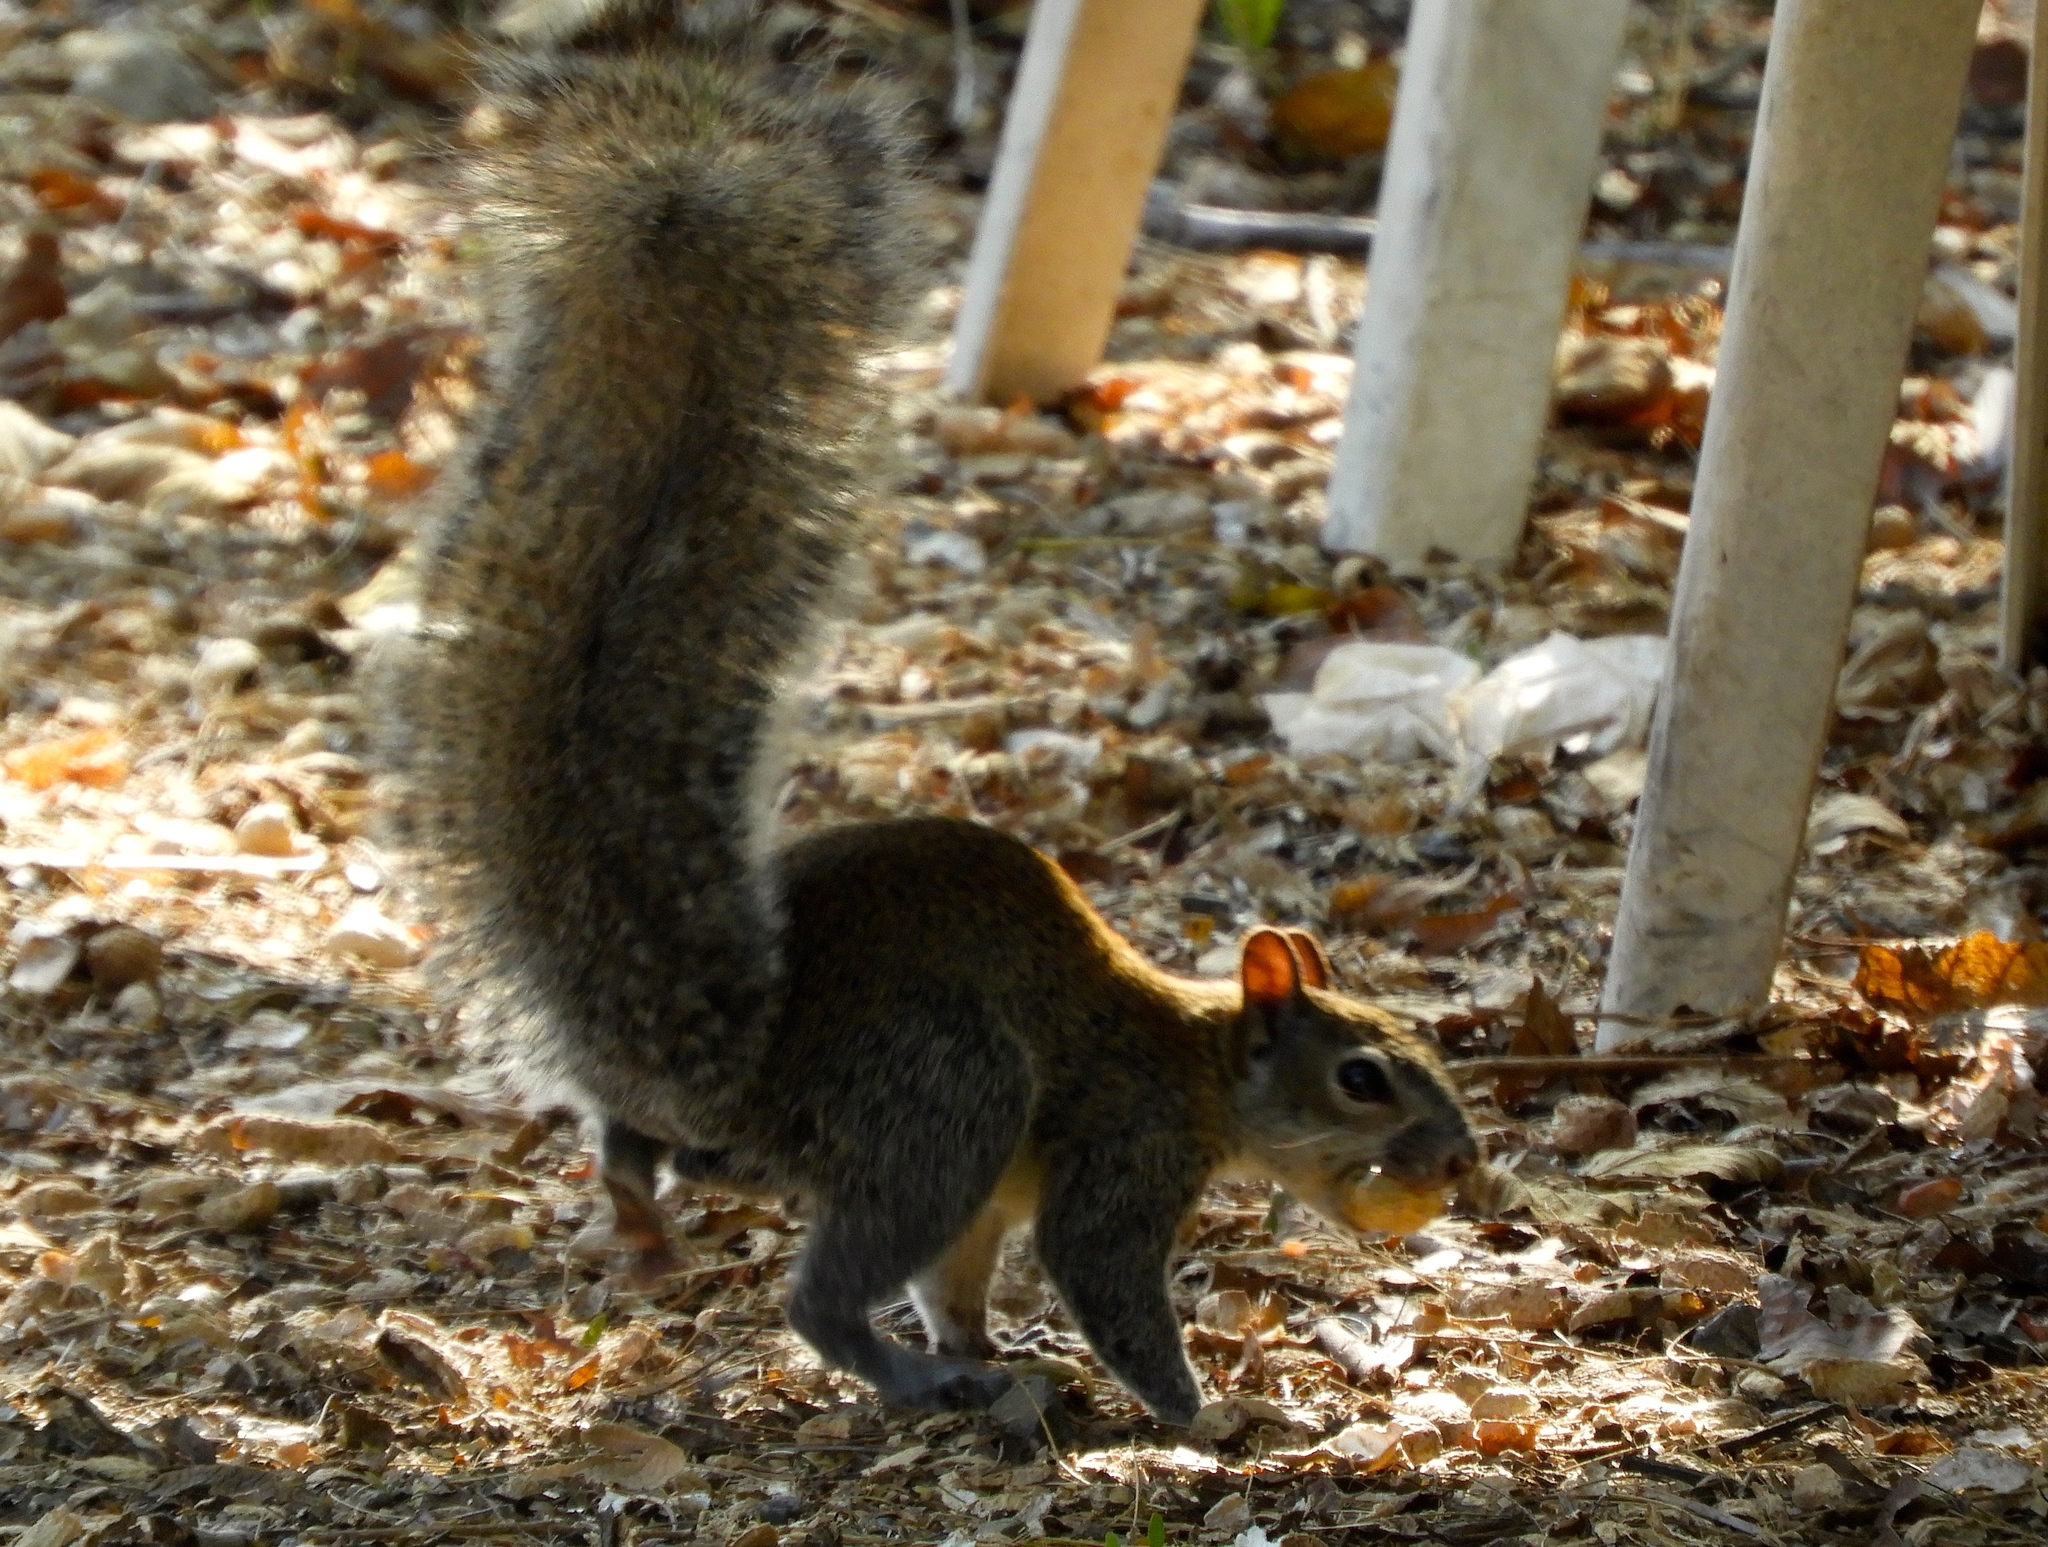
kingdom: Animalia
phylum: Chordata
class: Mammalia
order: Rodentia
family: Sciuridae
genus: Sciurus
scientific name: Sciurus colliaei
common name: Collie's squirrel
